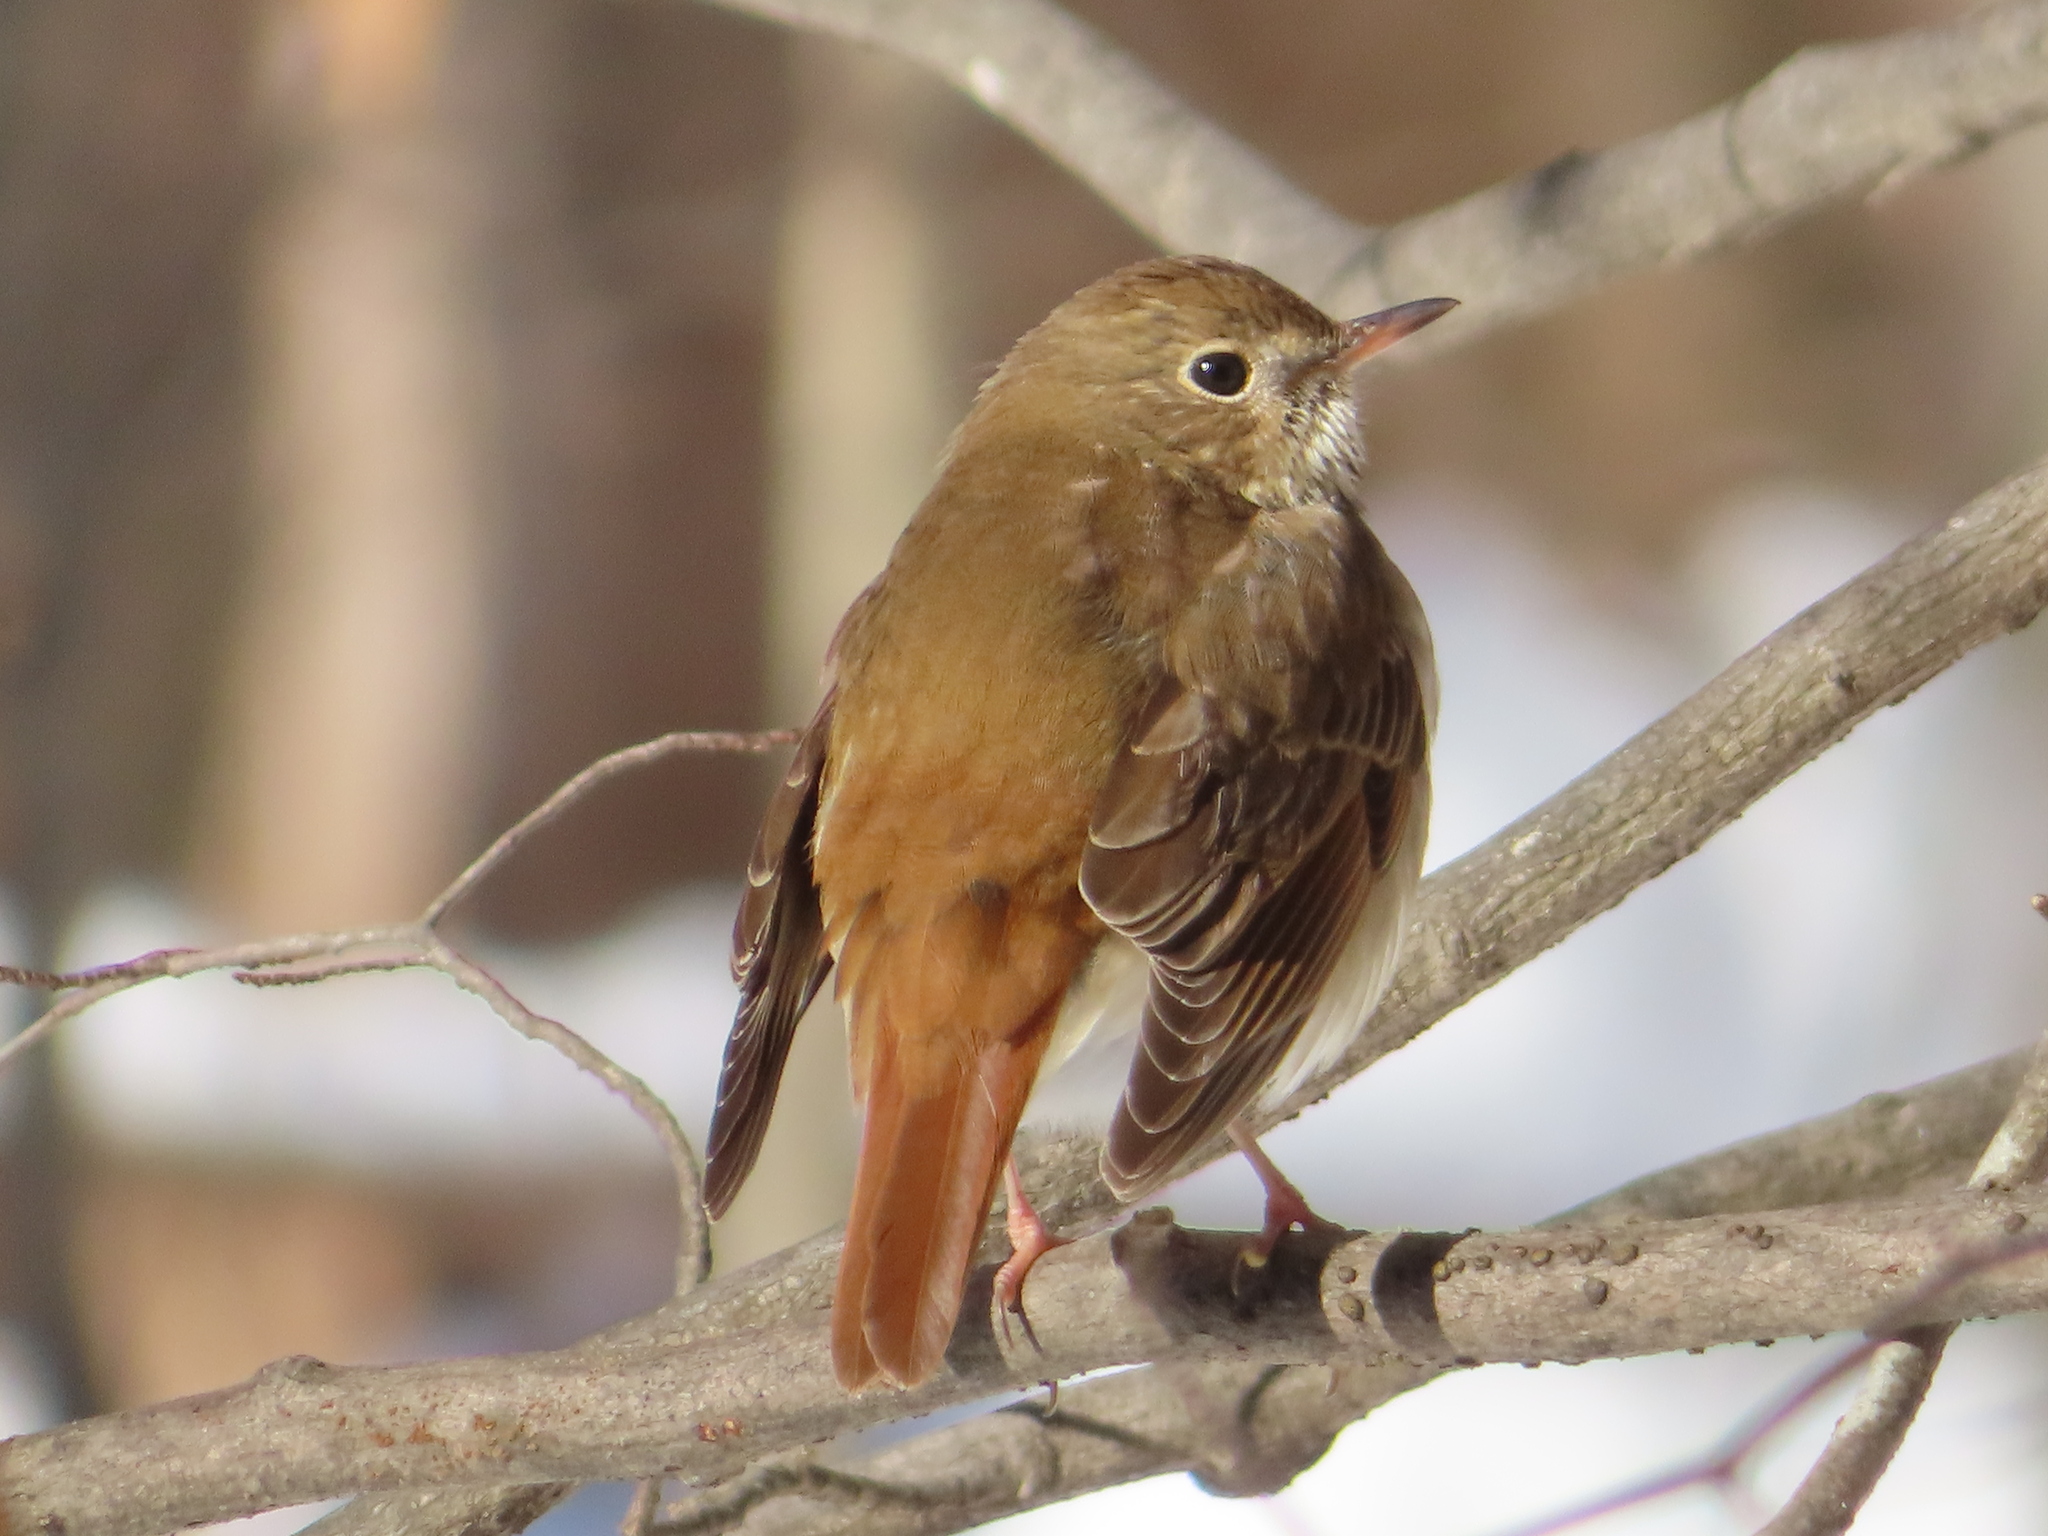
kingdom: Animalia
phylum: Chordata
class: Aves
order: Passeriformes
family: Turdidae
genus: Catharus
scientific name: Catharus guttatus
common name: Hermit thrush
